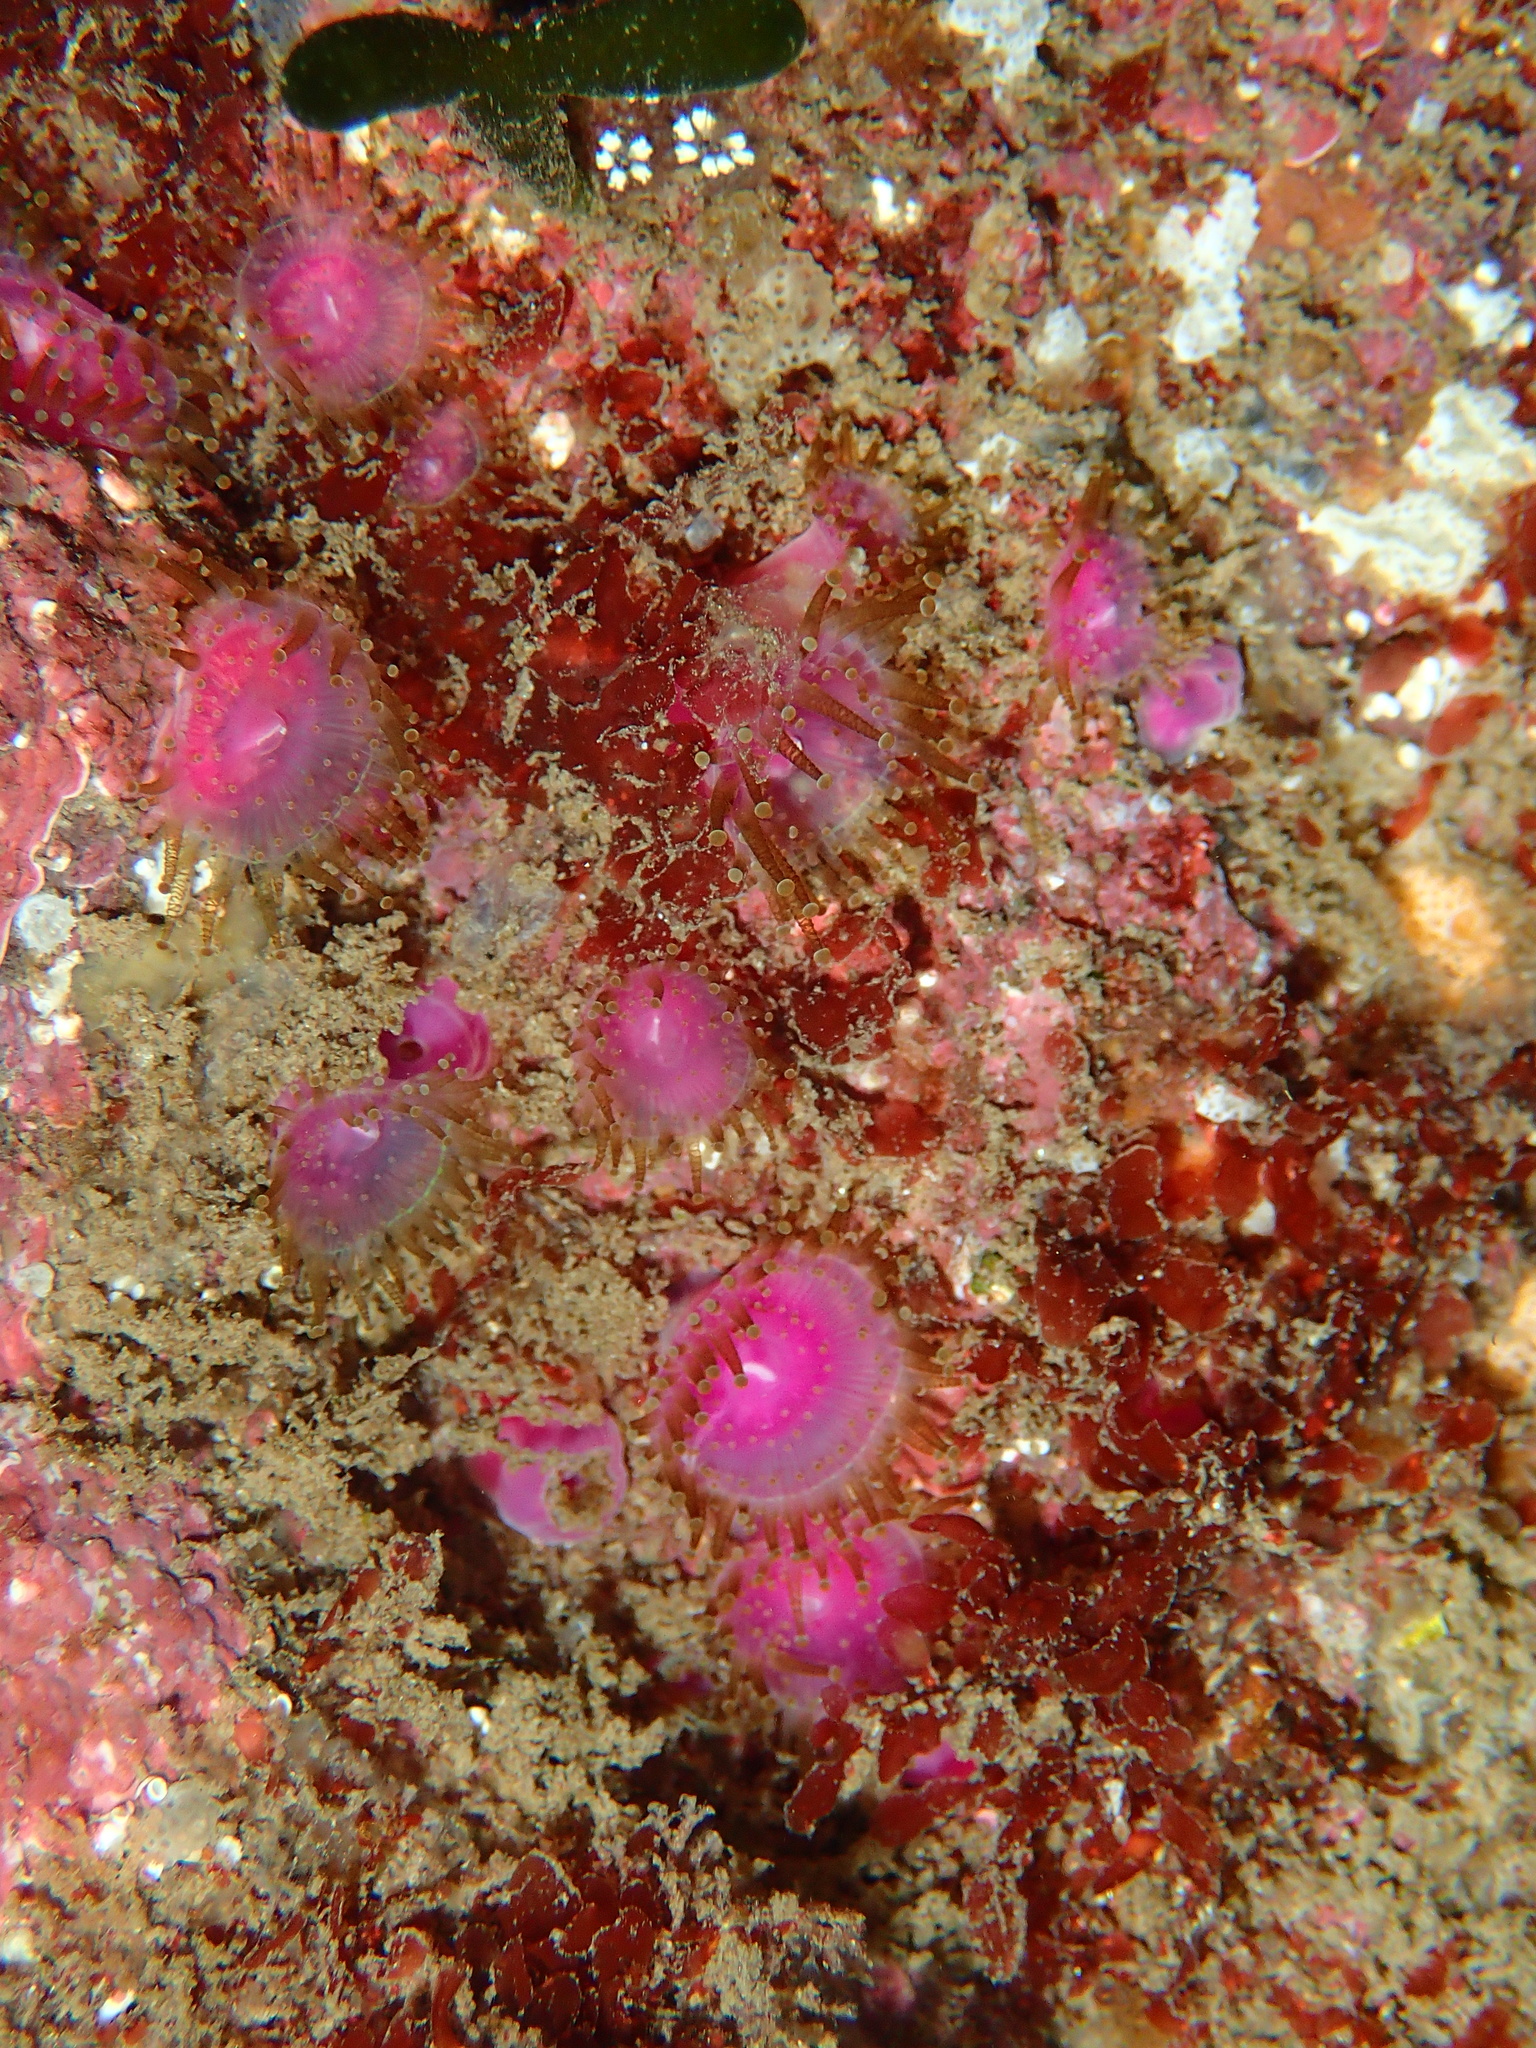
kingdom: Animalia
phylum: Cnidaria
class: Anthozoa
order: Corallimorpharia
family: Corallimorphidae
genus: Corynactis
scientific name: Corynactis viridis
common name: Jewel anemone
